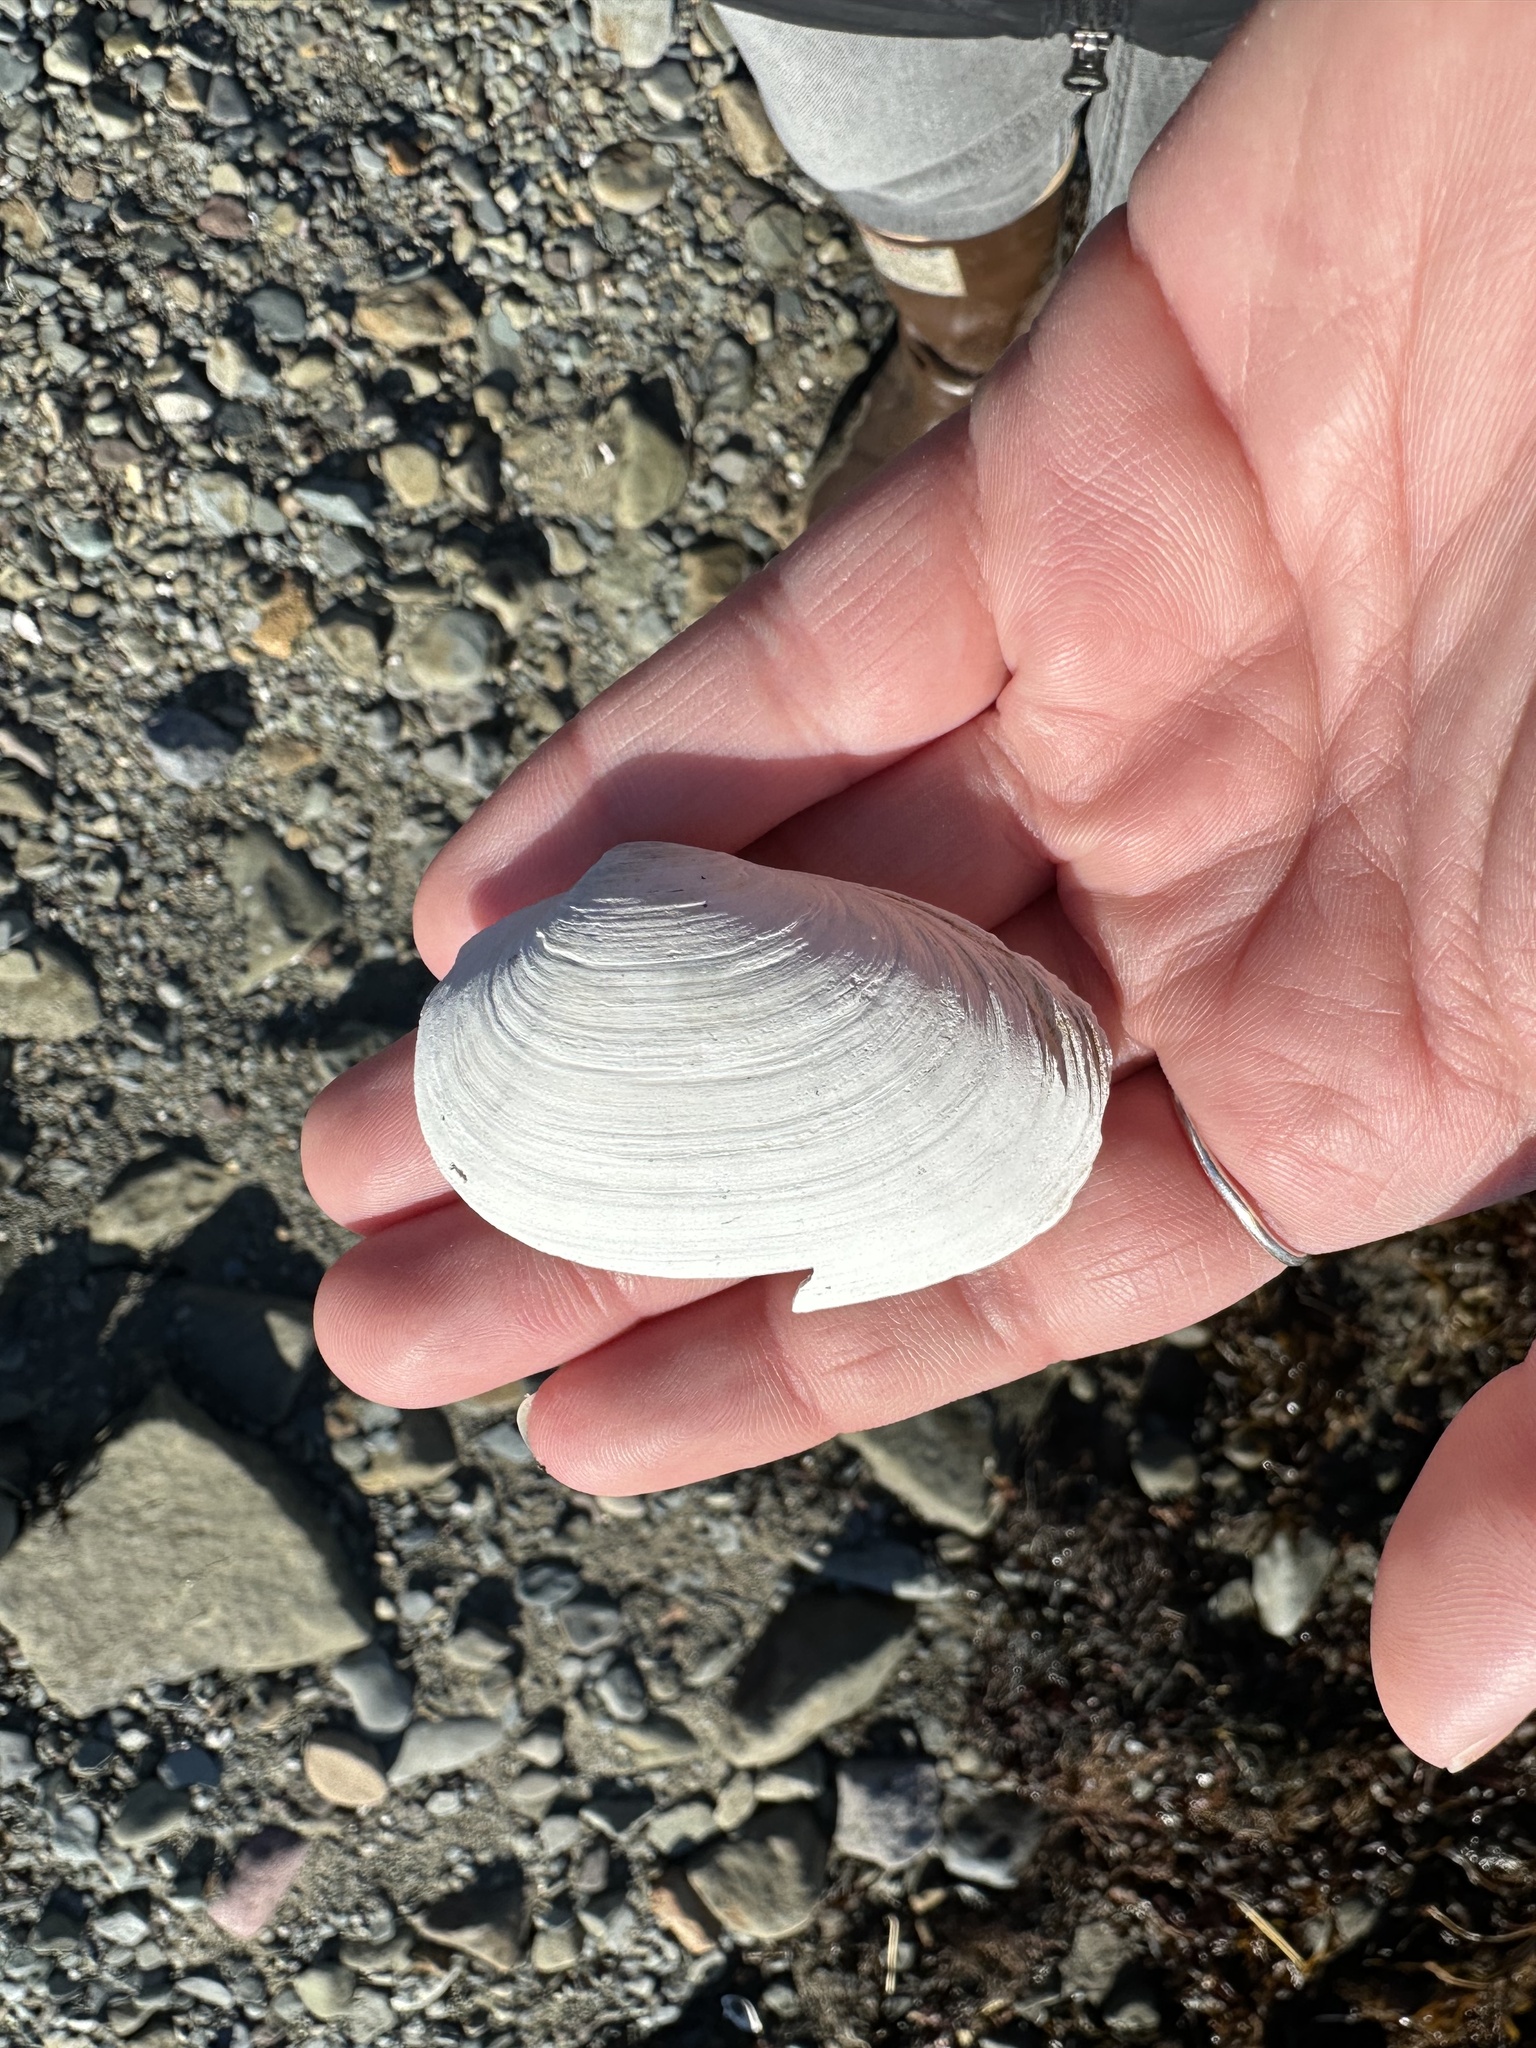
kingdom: Animalia
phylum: Mollusca
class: Bivalvia
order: Myida
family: Myidae
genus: Mya
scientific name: Mya arenaria
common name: Soft-shelled clam
